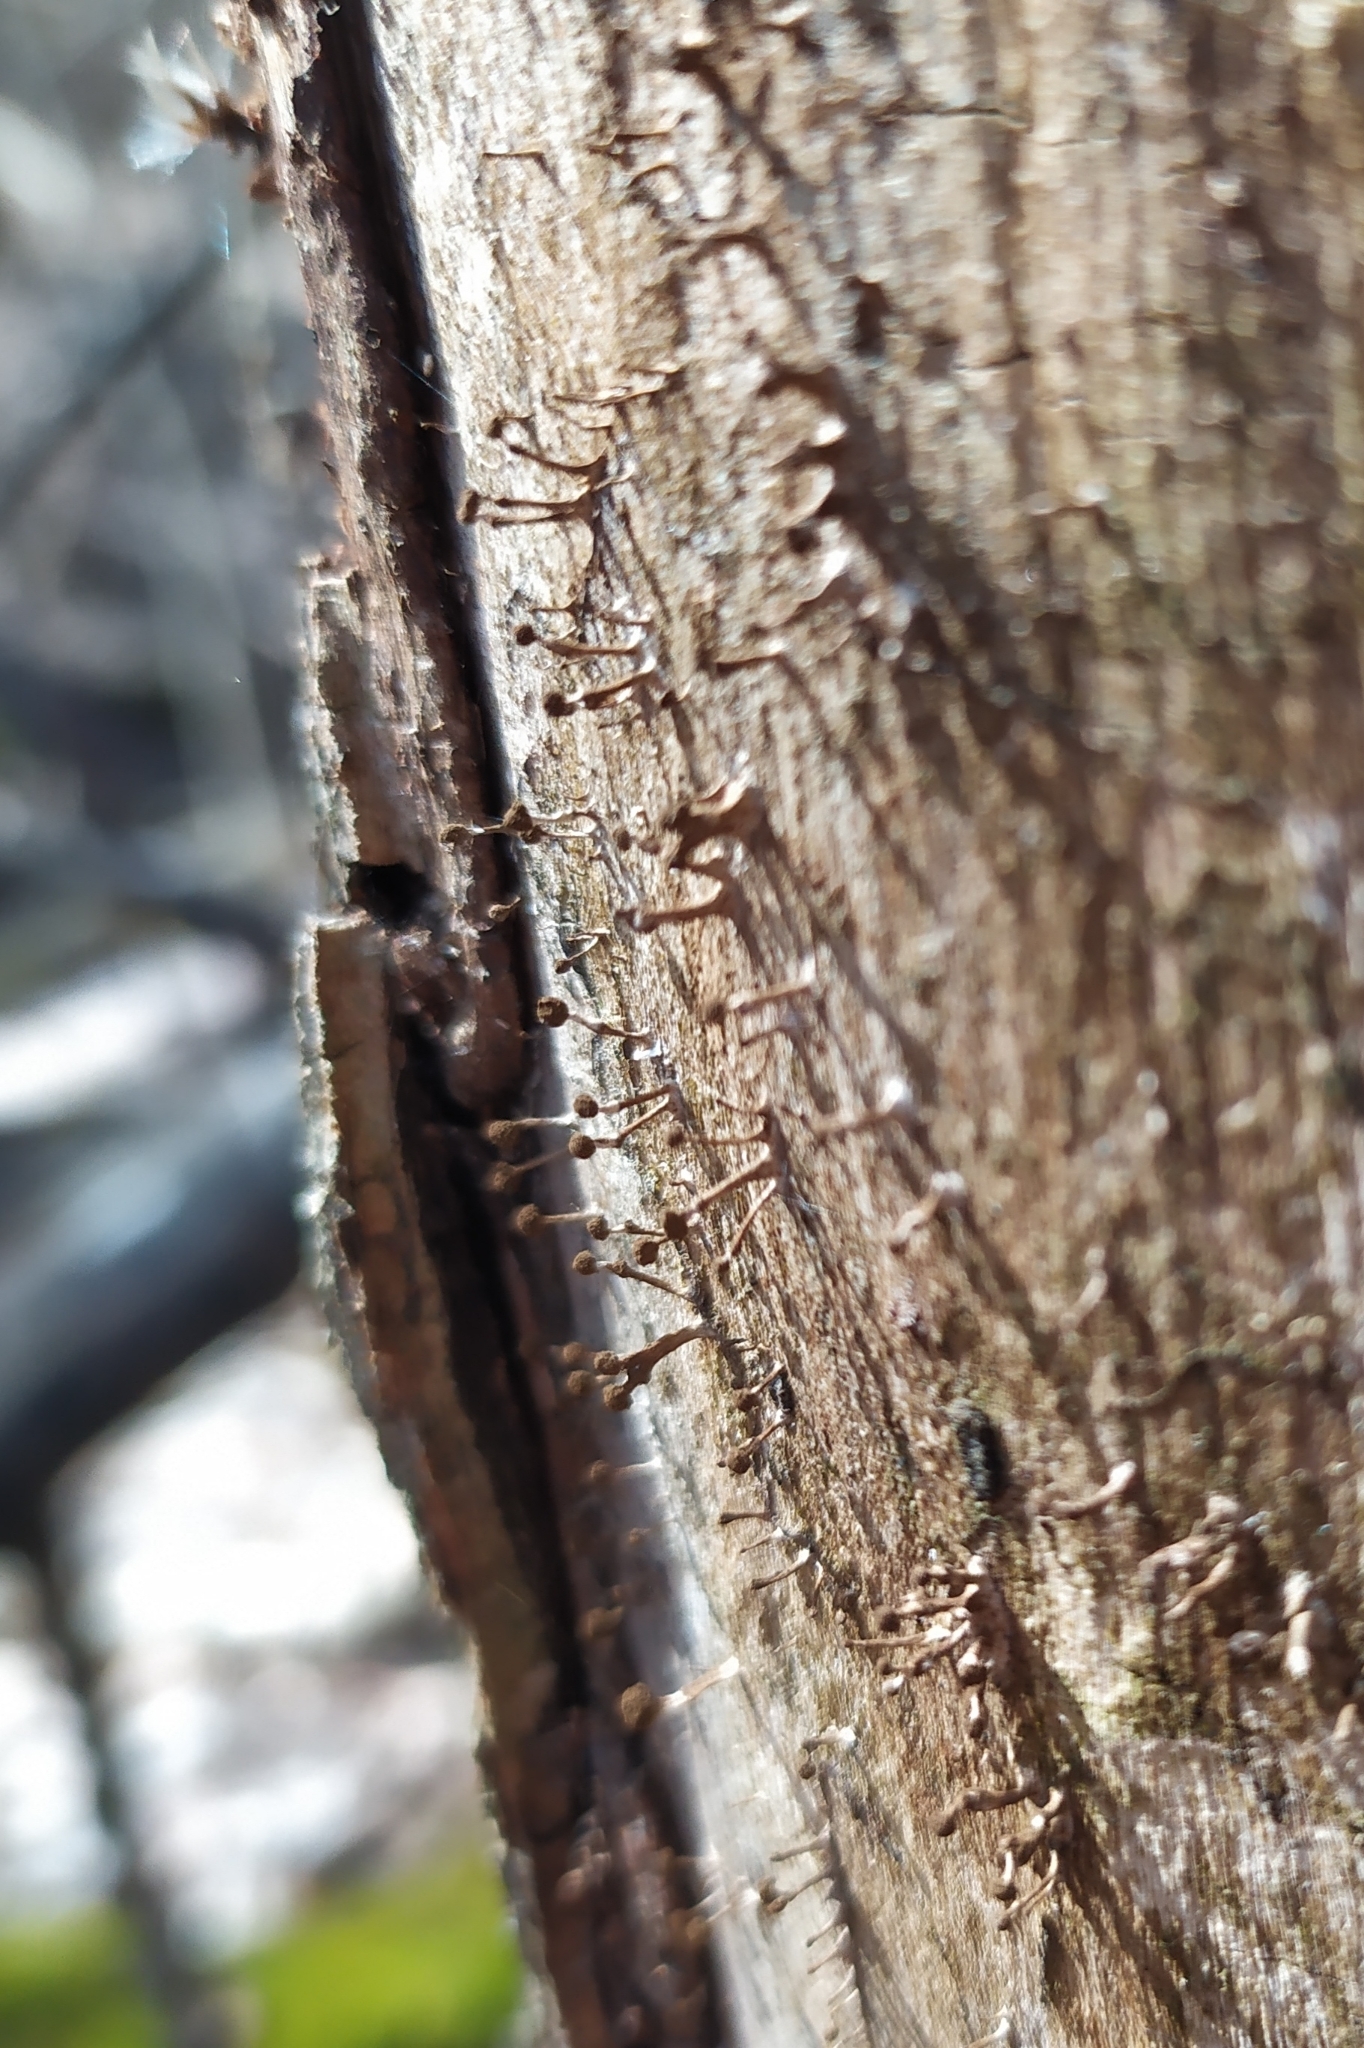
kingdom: Fungi
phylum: Basidiomycota
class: Atractiellomycetes
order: Atractiellales
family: Phleogenaceae
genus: Phleogena
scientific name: Phleogena faginea
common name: Fenugreek stalkball
